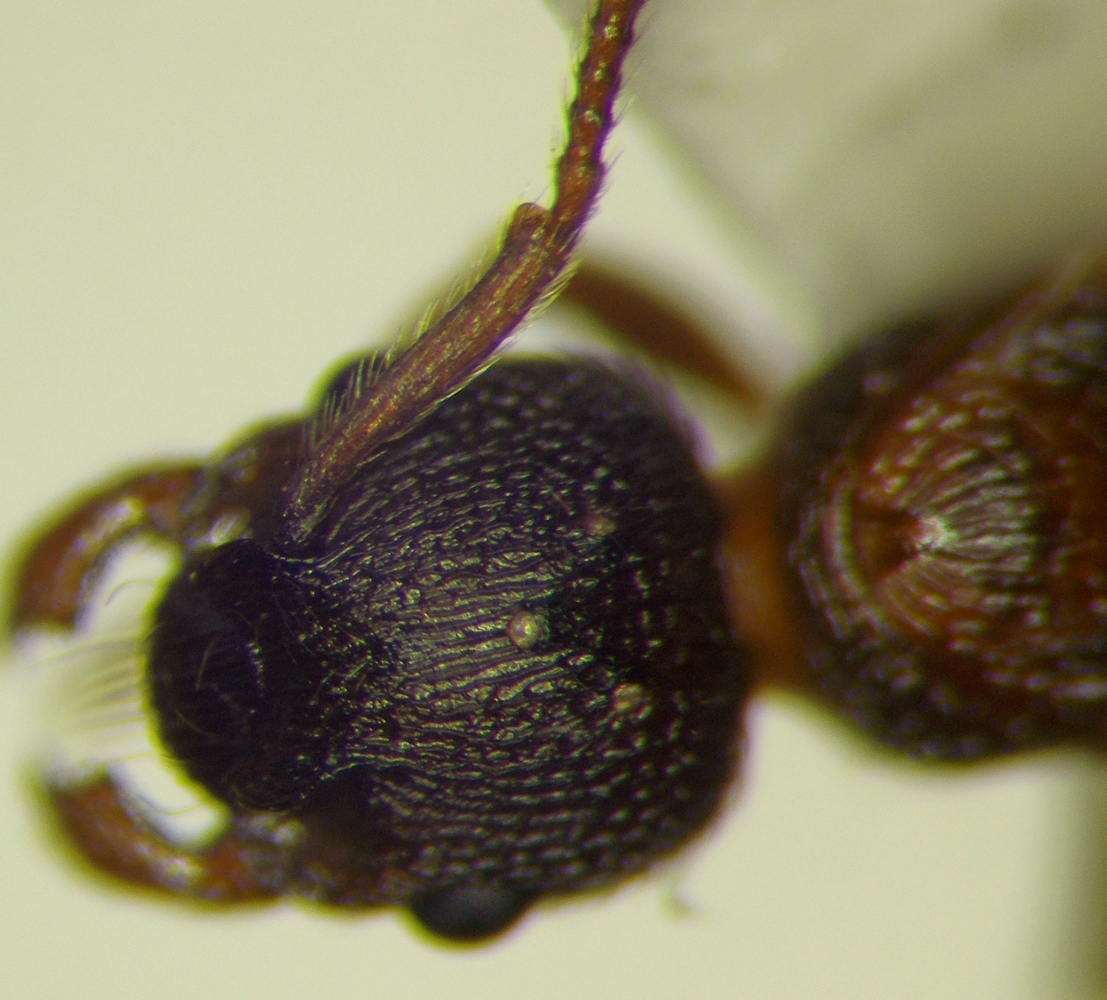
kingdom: Animalia
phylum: Arthropoda
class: Insecta
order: Hymenoptera
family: Formicidae
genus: Myrmica
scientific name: Myrmica stangeana
